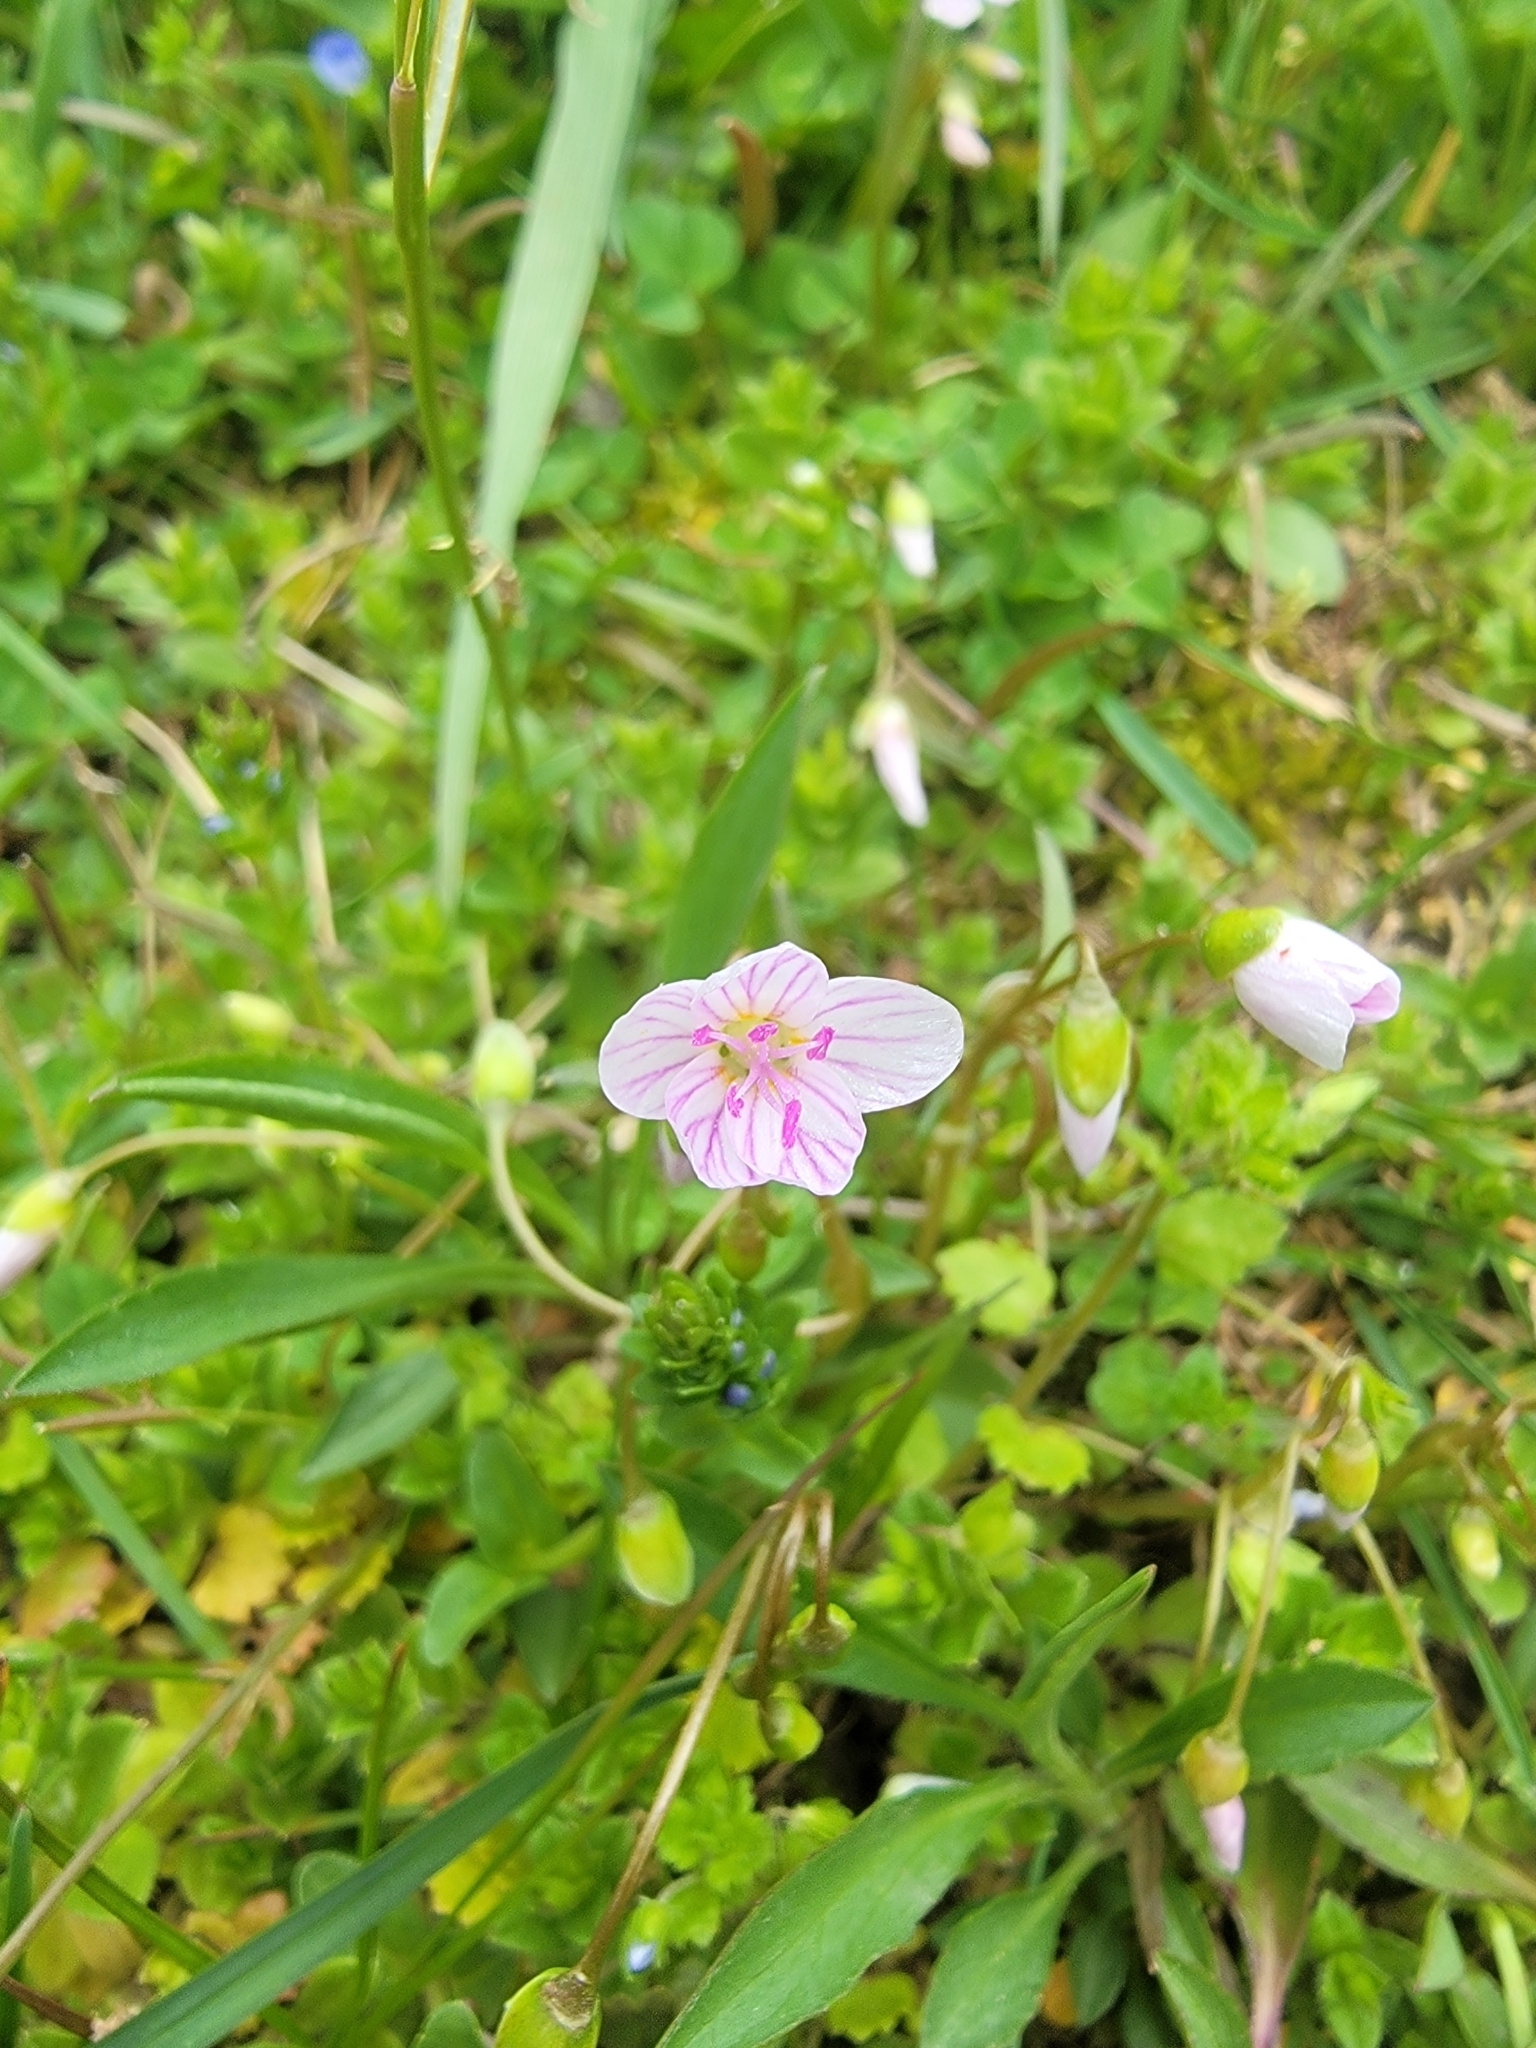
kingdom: Plantae
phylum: Tracheophyta
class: Magnoliopsida
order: Caryophyllales
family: Montiaceae
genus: Claytonia
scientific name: Claytonia virginica
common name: Virginia springbeauty
